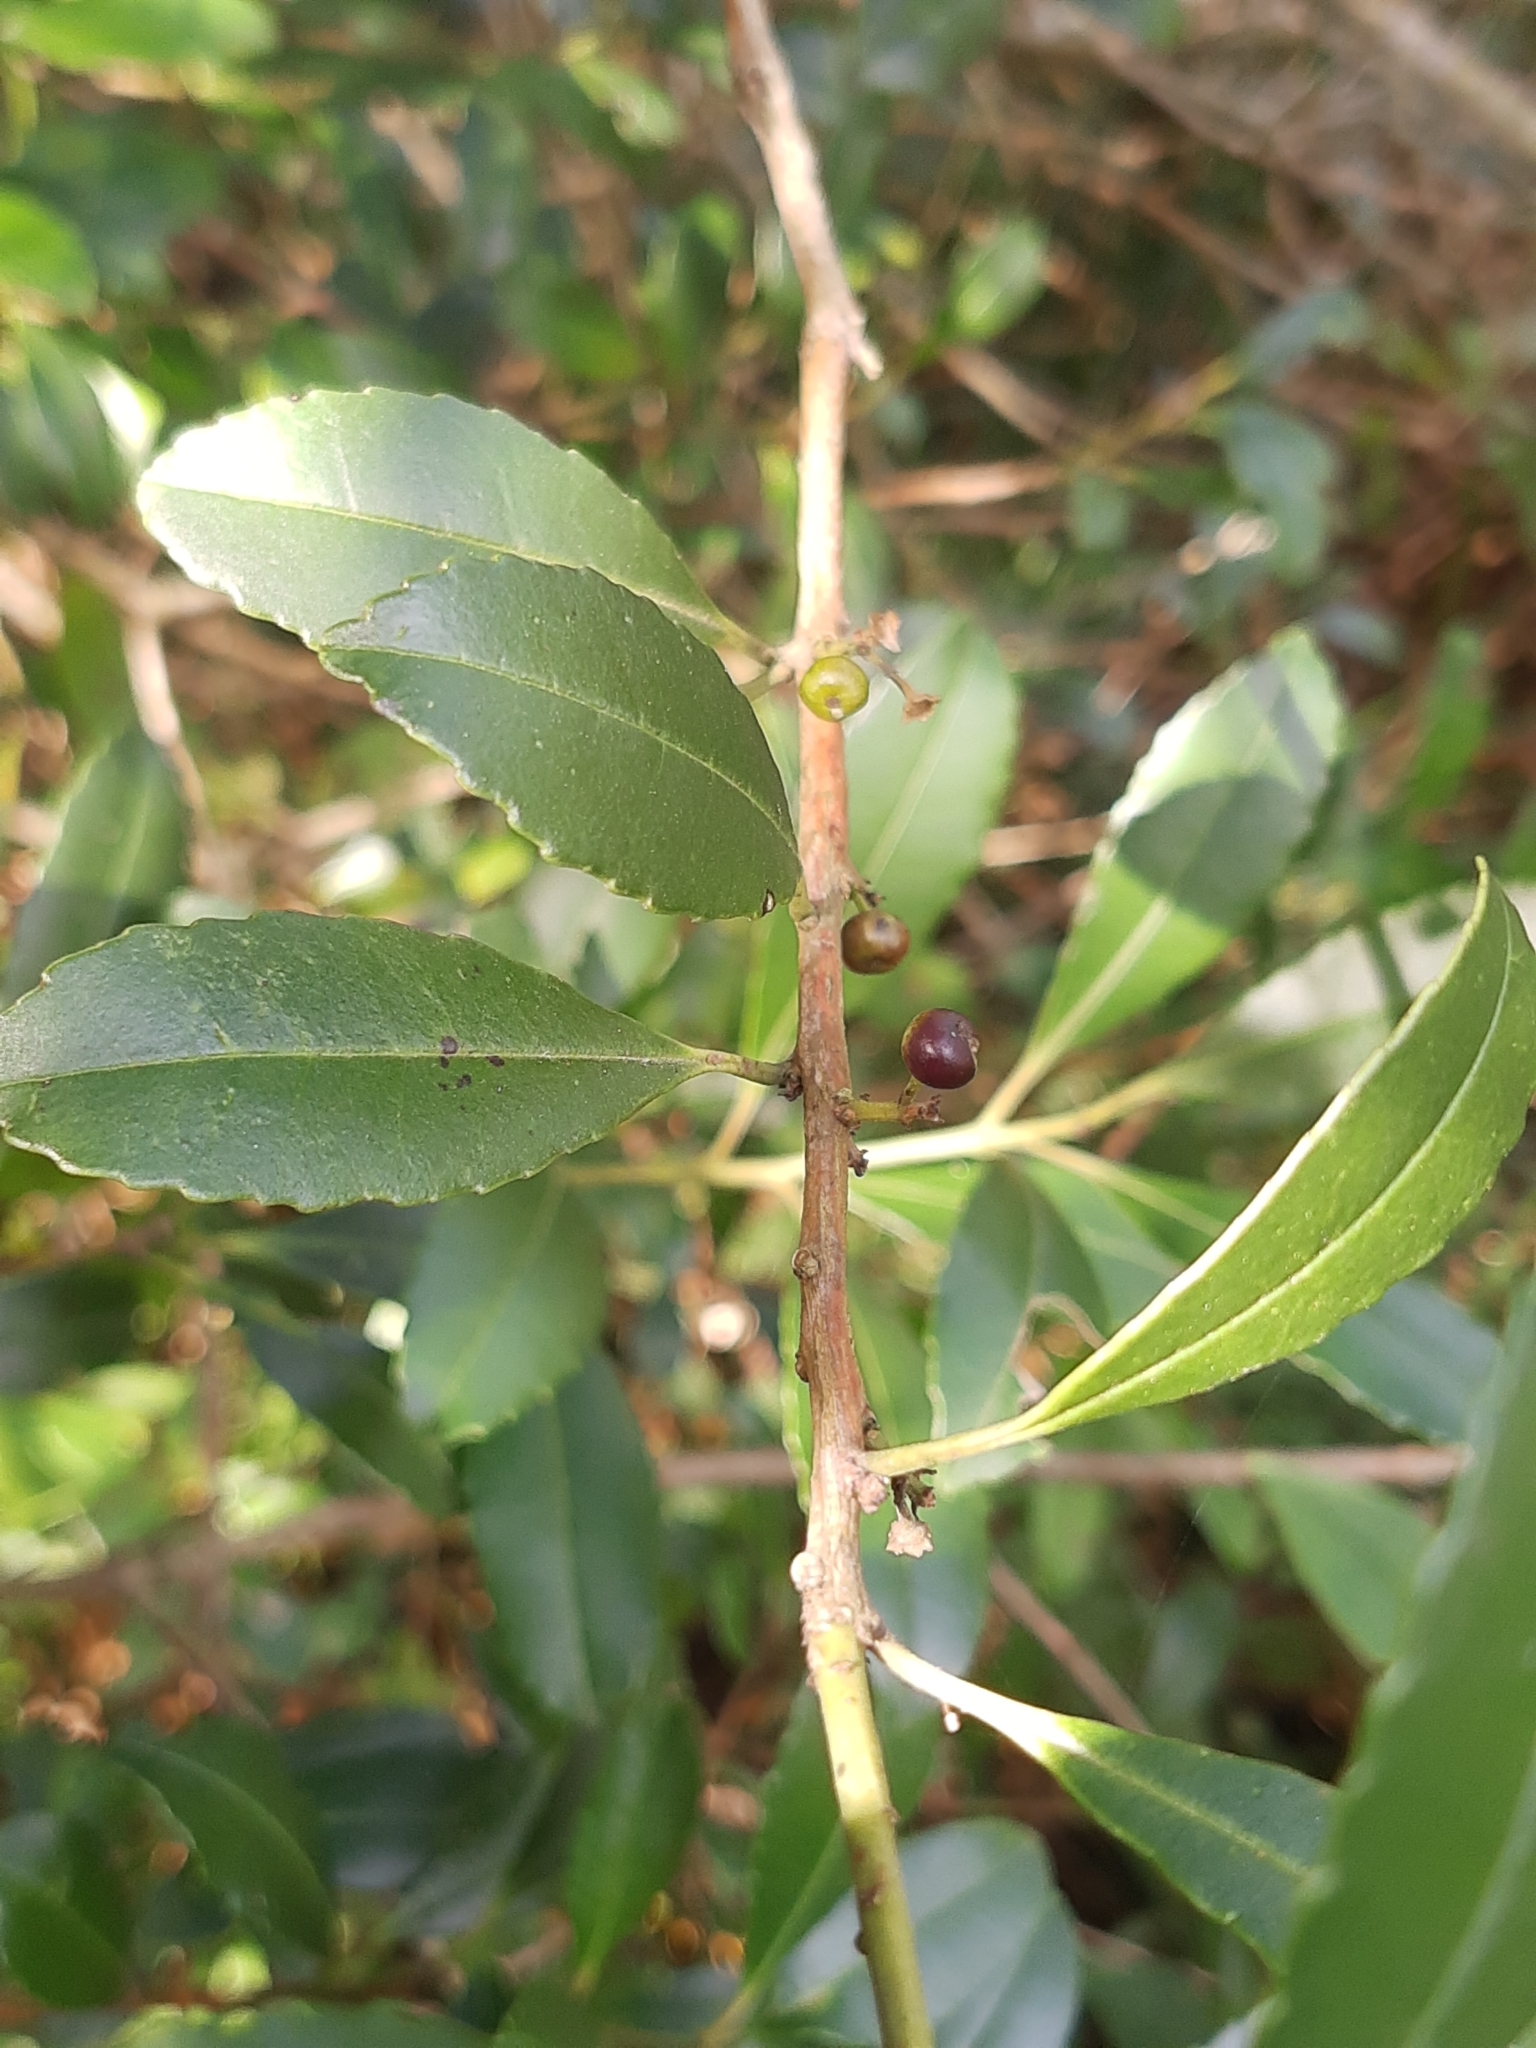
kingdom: Plantae
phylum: Tracheophyta
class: Magnoliopsida
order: Aquifoliales
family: Aquifoliaceae
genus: Ilex
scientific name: Ilex dumosa
